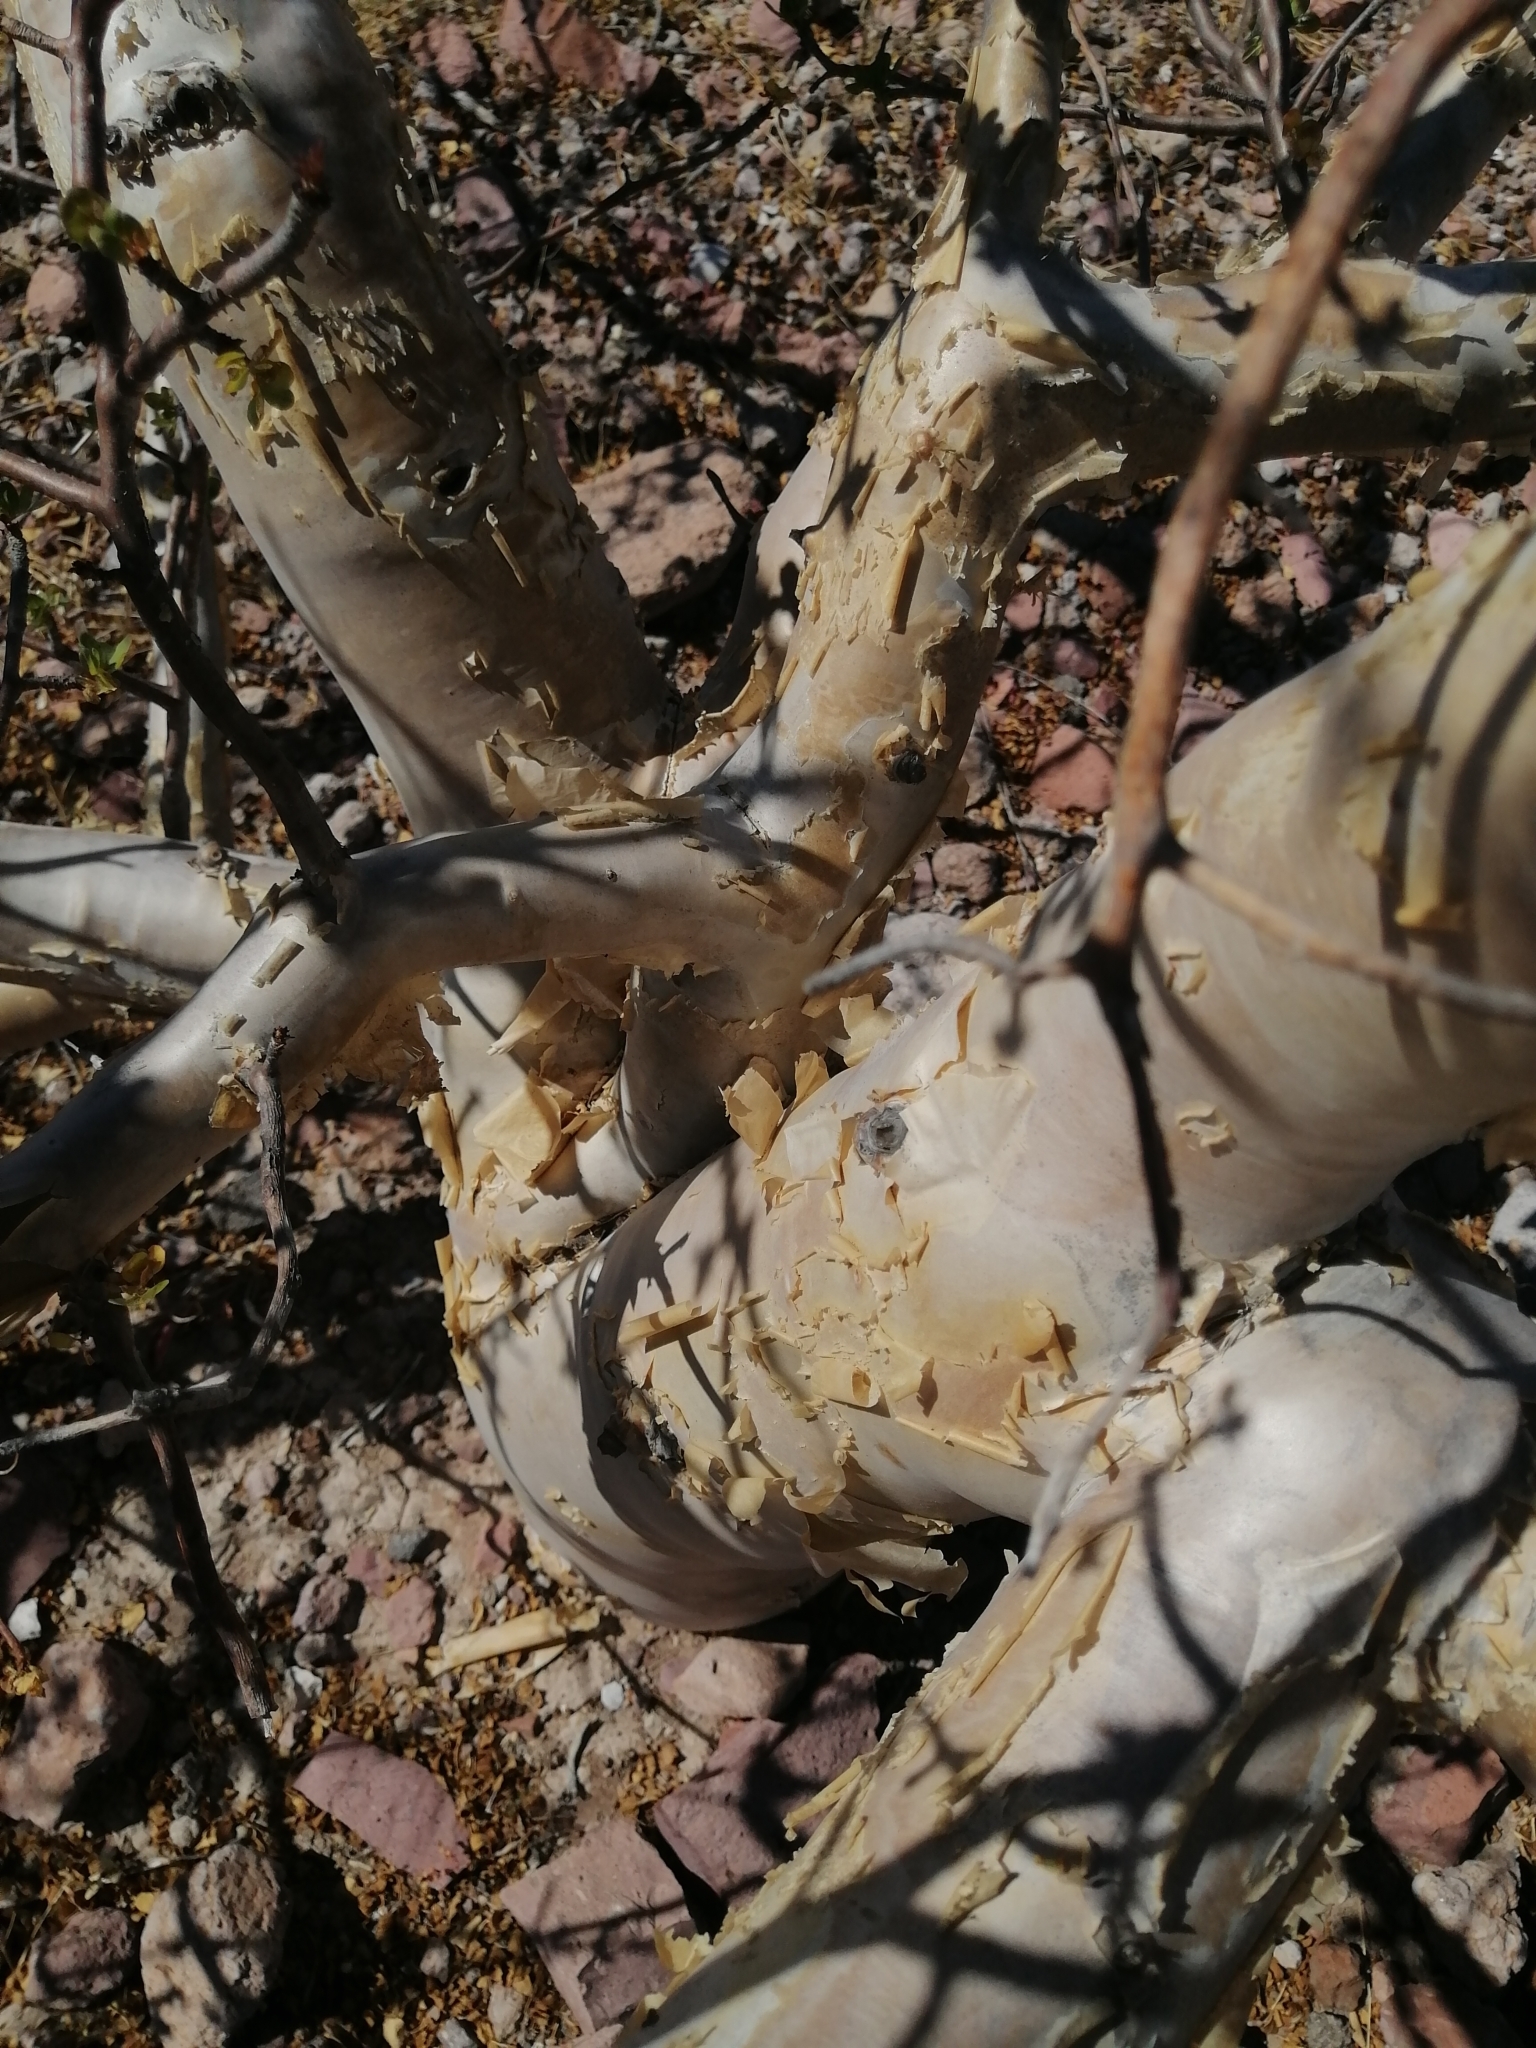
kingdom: Plantae
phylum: Tracheophyta
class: Magnoliopsida
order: Sapindales
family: Burseraceae
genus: Bursera
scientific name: Bursera fagaroides
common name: Elephant tree
